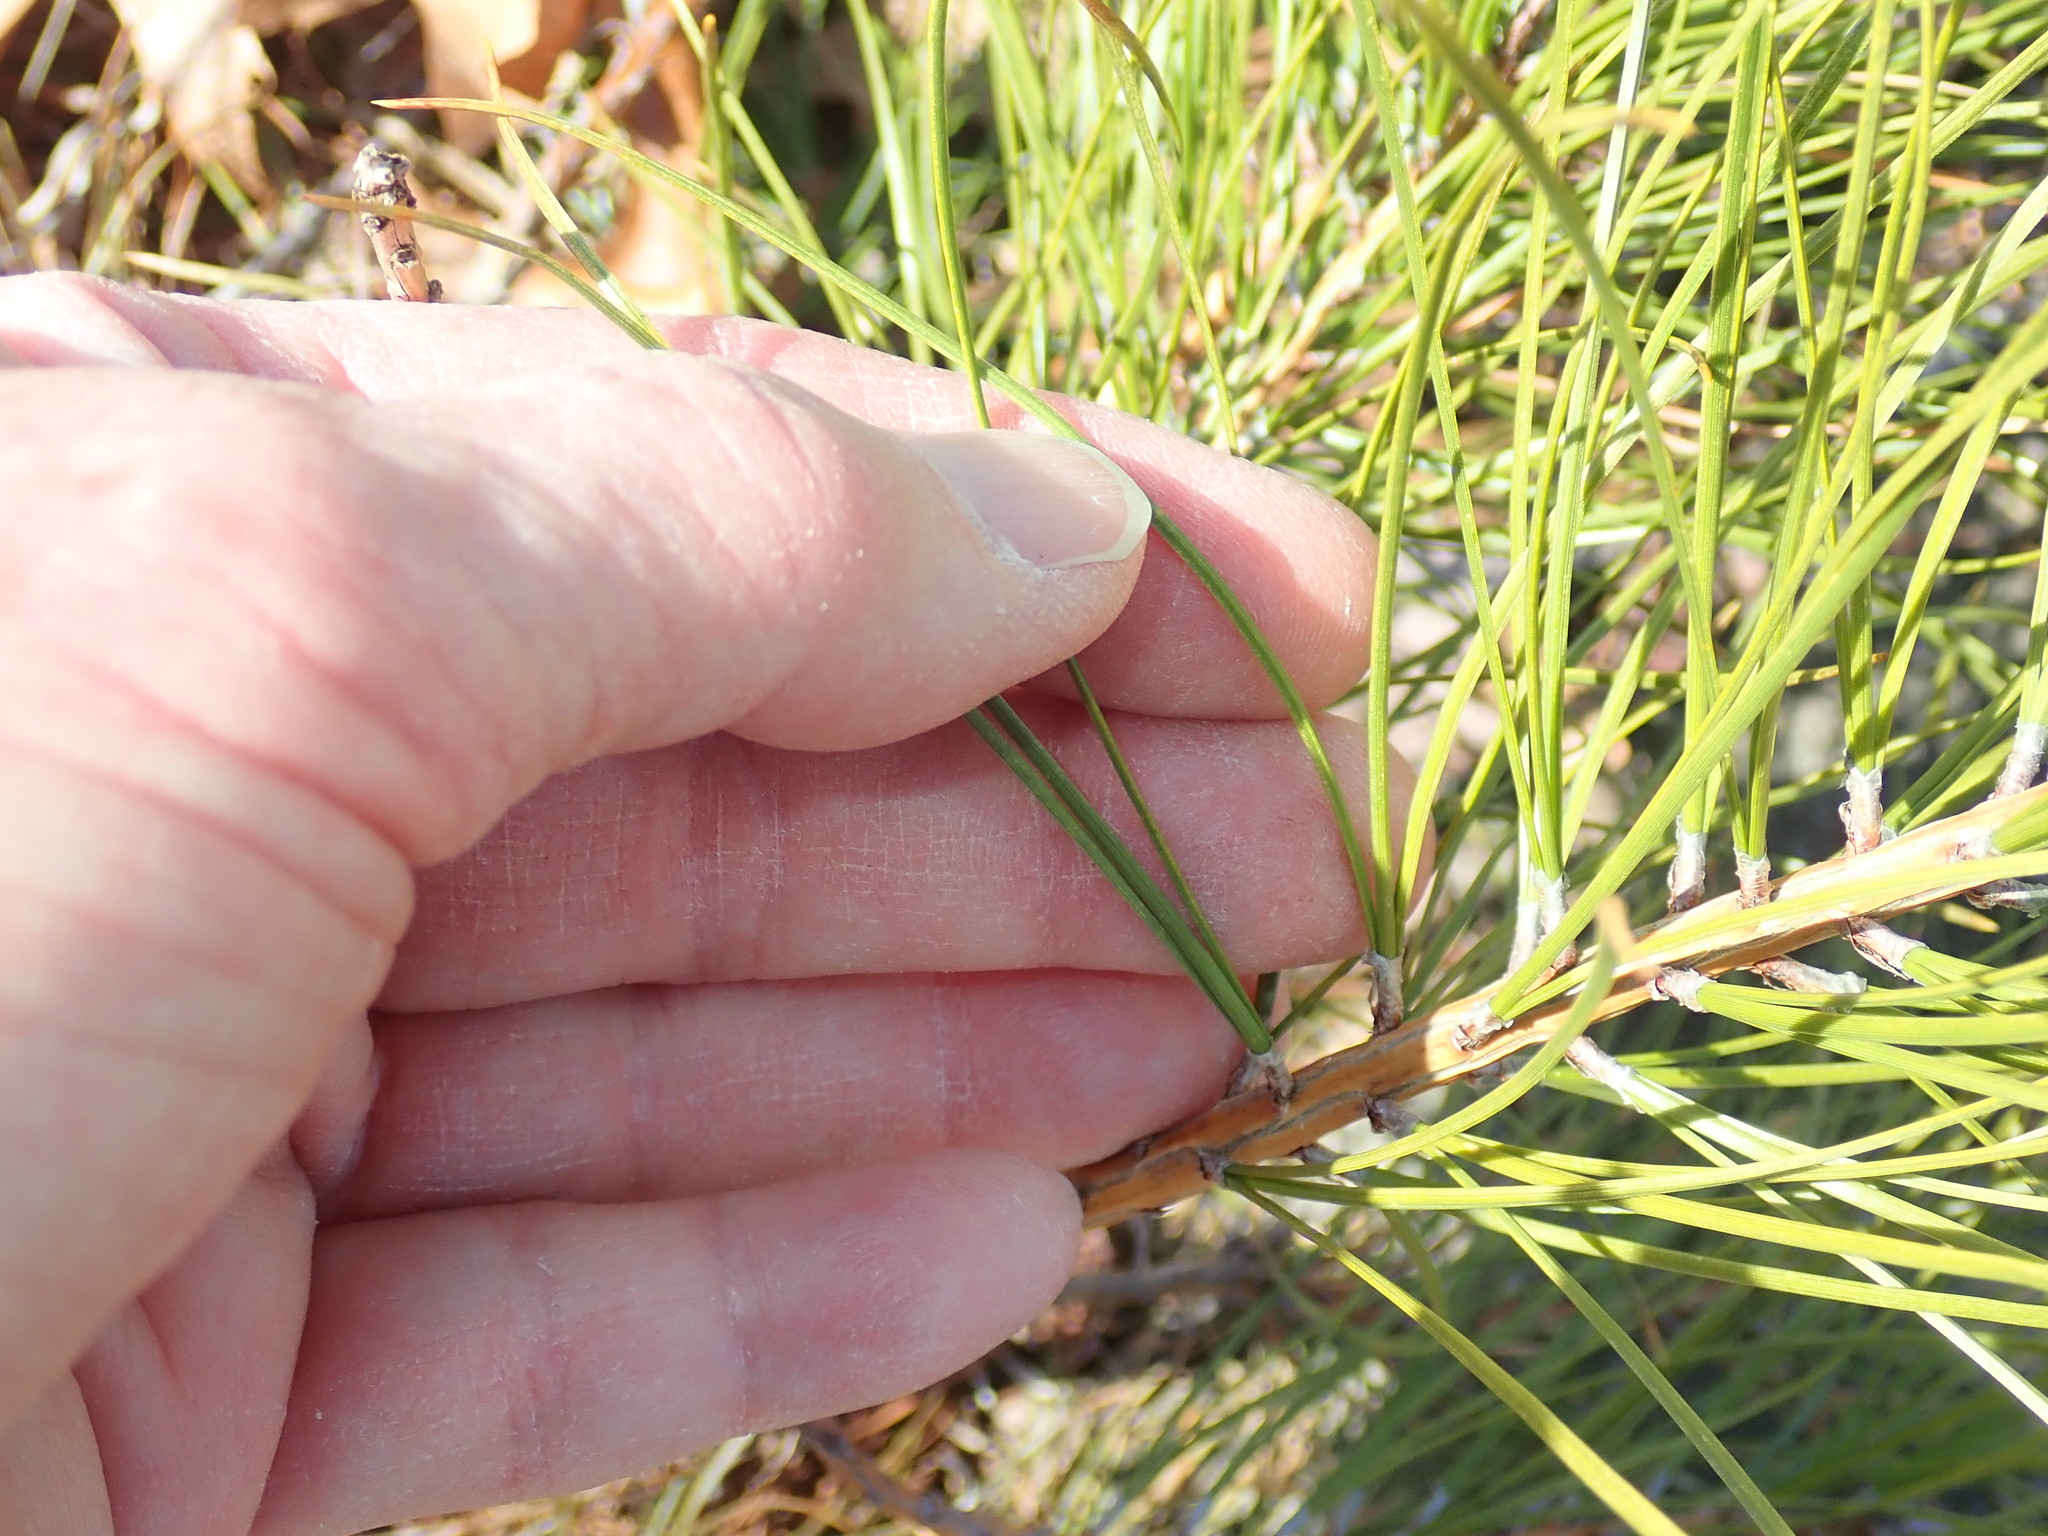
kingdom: Plantae
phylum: Tracheophyta
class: Pinopsida
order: Pinales
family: Pinaceae
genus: Pinus
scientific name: Pinus rigida
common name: Pitch pine
